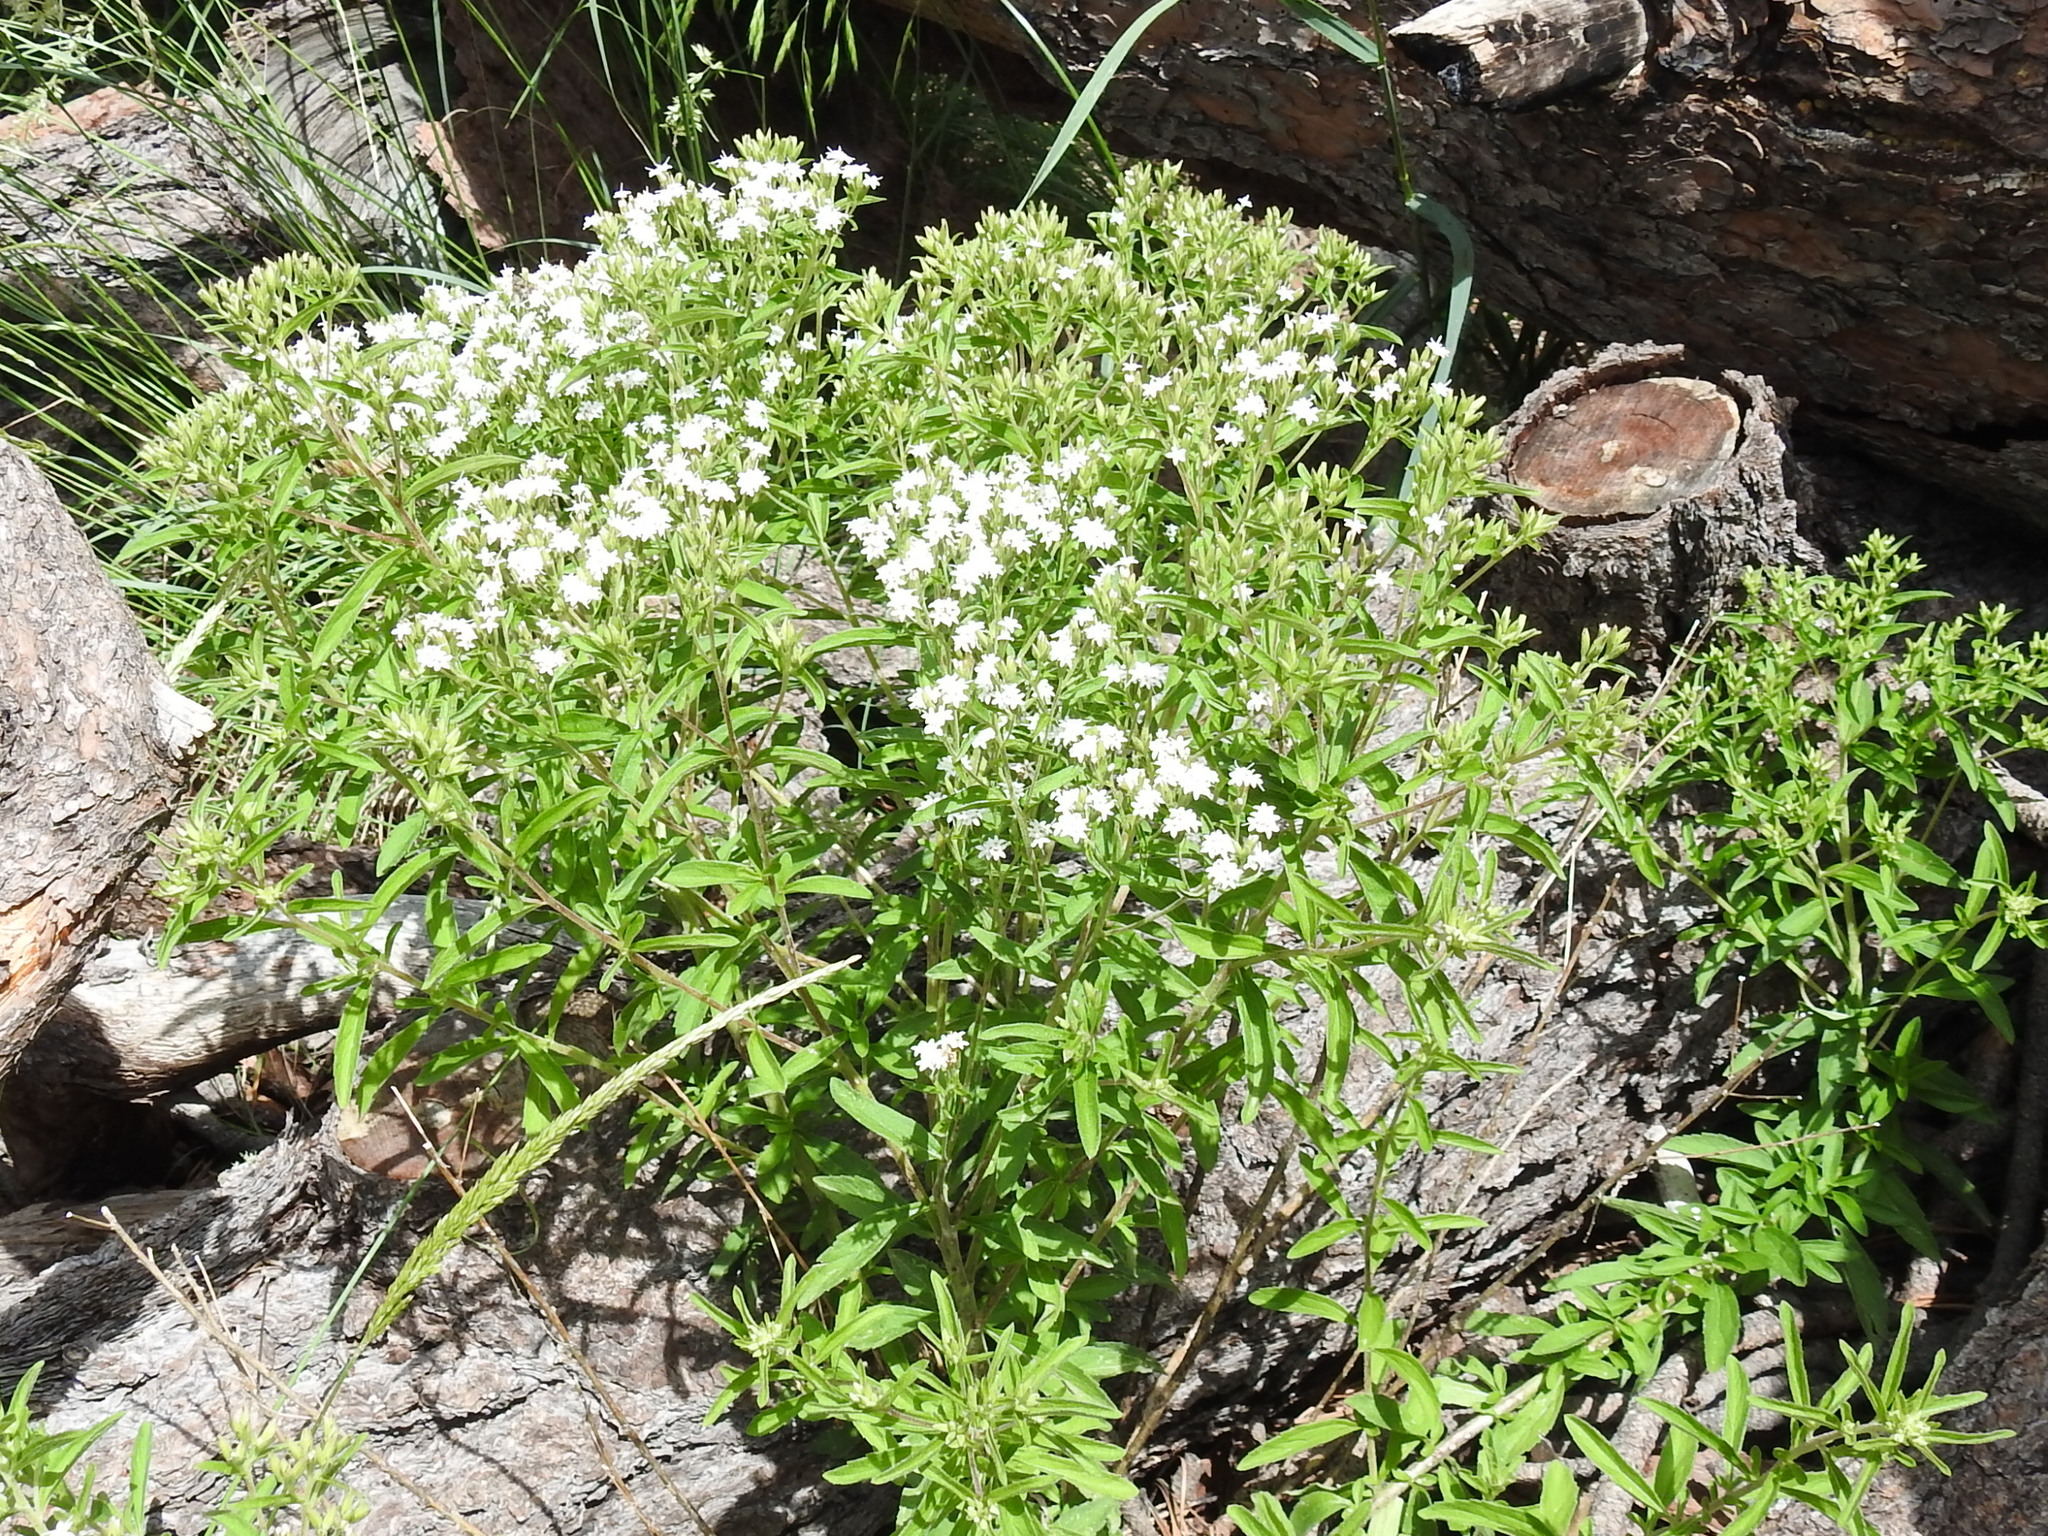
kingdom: Plantae
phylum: Tracheophyta
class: Magnoliopsida
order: Asterales
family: Asteraceae
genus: Stevia
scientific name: Stevia serrata
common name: Sawtooth candyleaf
